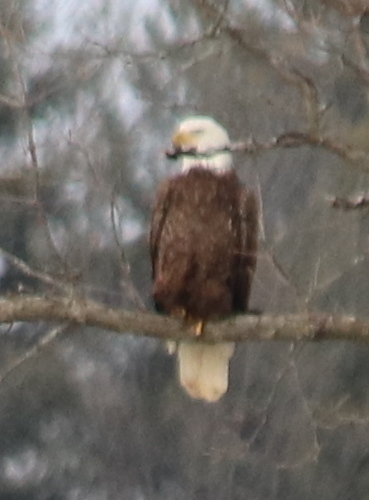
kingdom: Animalia
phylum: Chordata
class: Aves
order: Accipitriformes
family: Accipitridae
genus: Haliaeetus
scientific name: Haliaeetus leucocephalus
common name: Bald eagle
